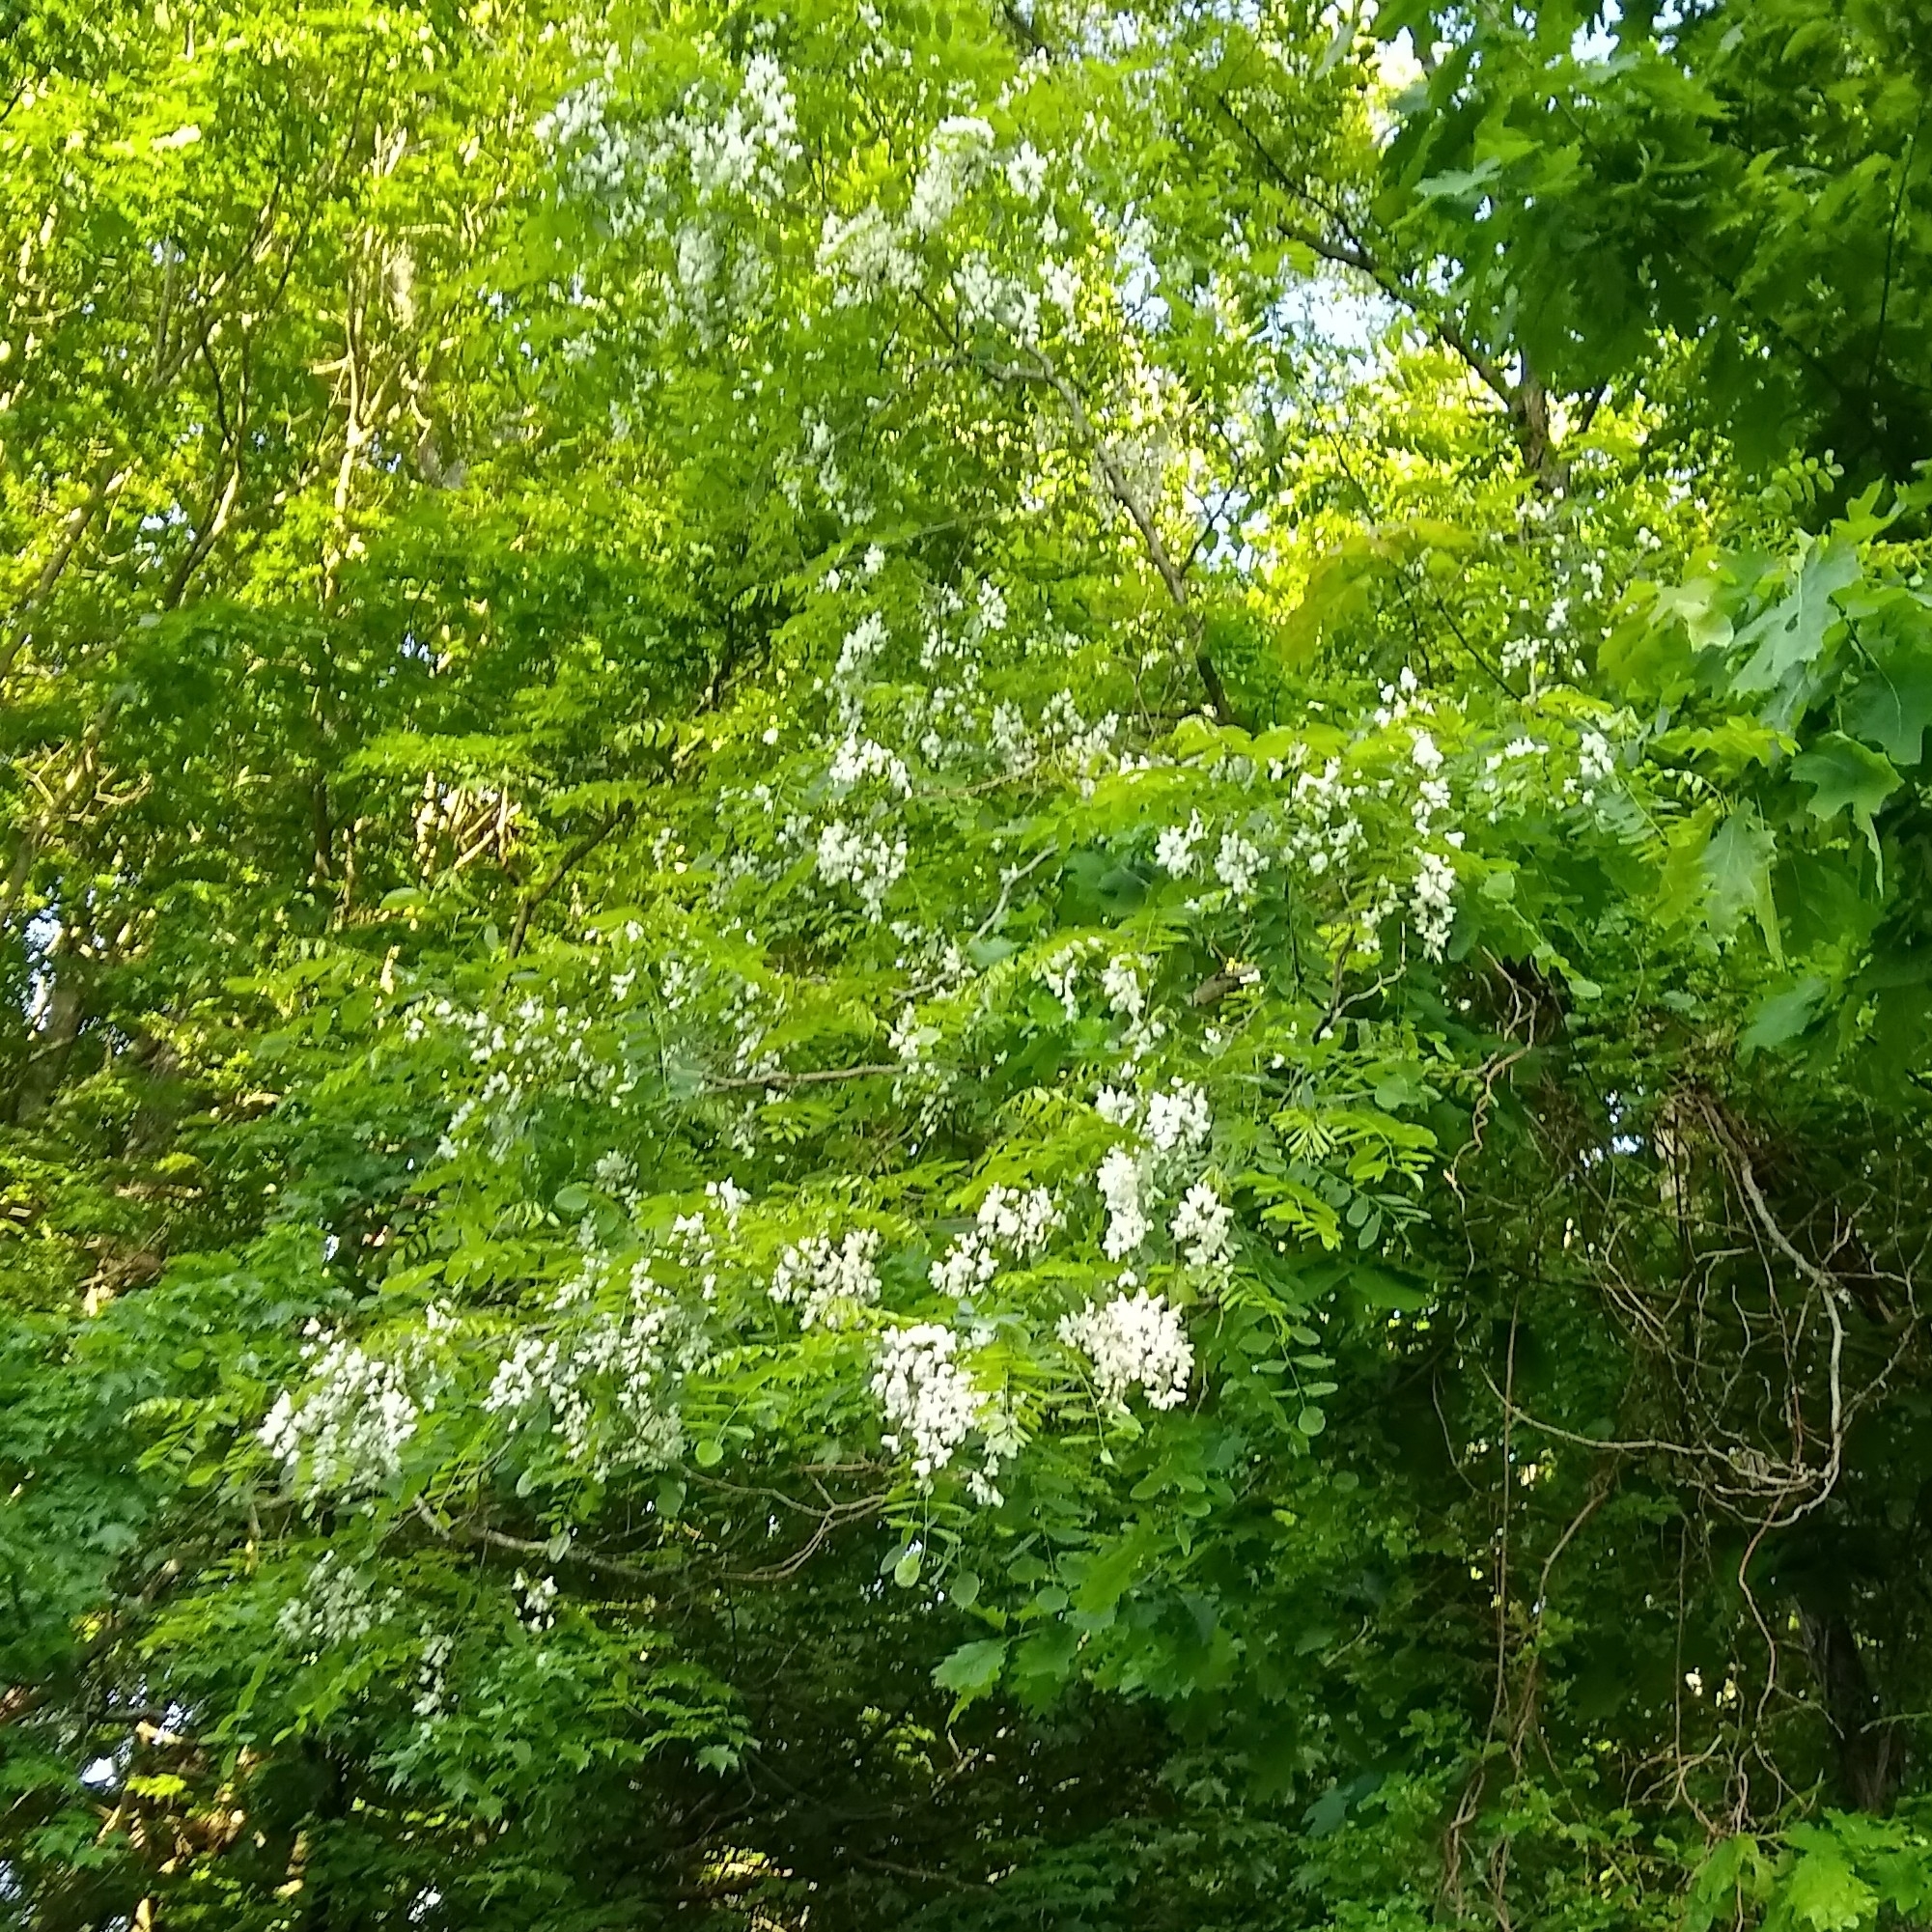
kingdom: Plantae
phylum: Tracheophyta
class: Magnoliopsida
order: Fabales
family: Fabaceae
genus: Robinia
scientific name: Robinia pseudoacacia
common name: Black locust
